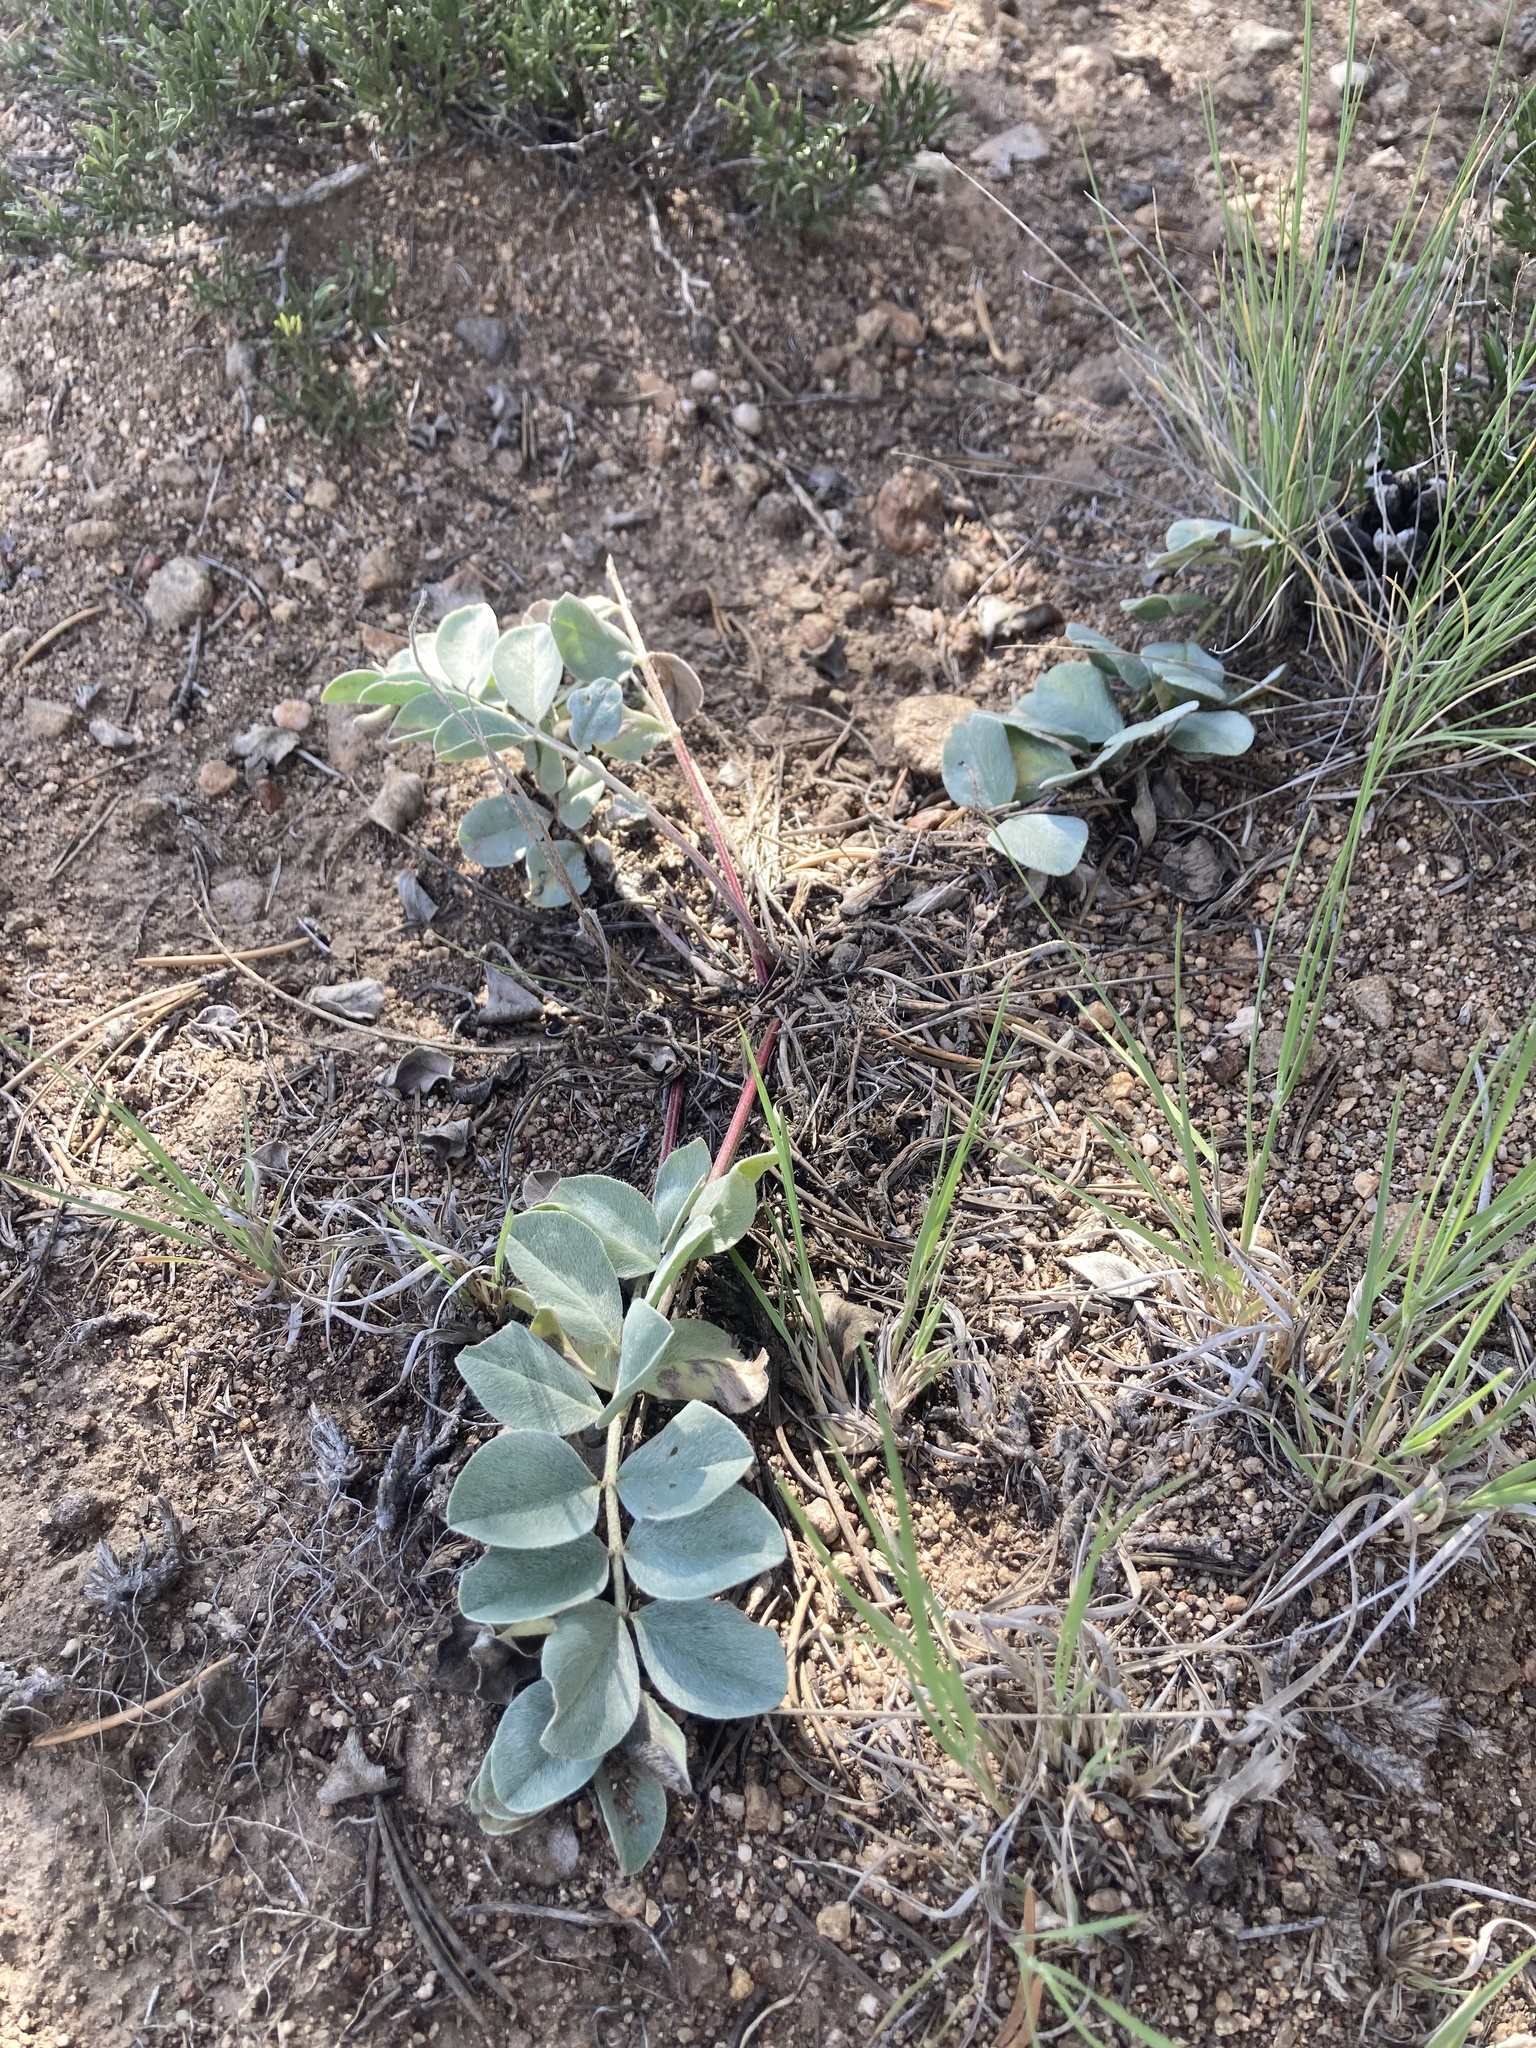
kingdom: Plantae
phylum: Tracheophyta
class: Magnoliopsida
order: Fabales
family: Fabaceae
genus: Astragalus
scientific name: Astragalus shortianus
